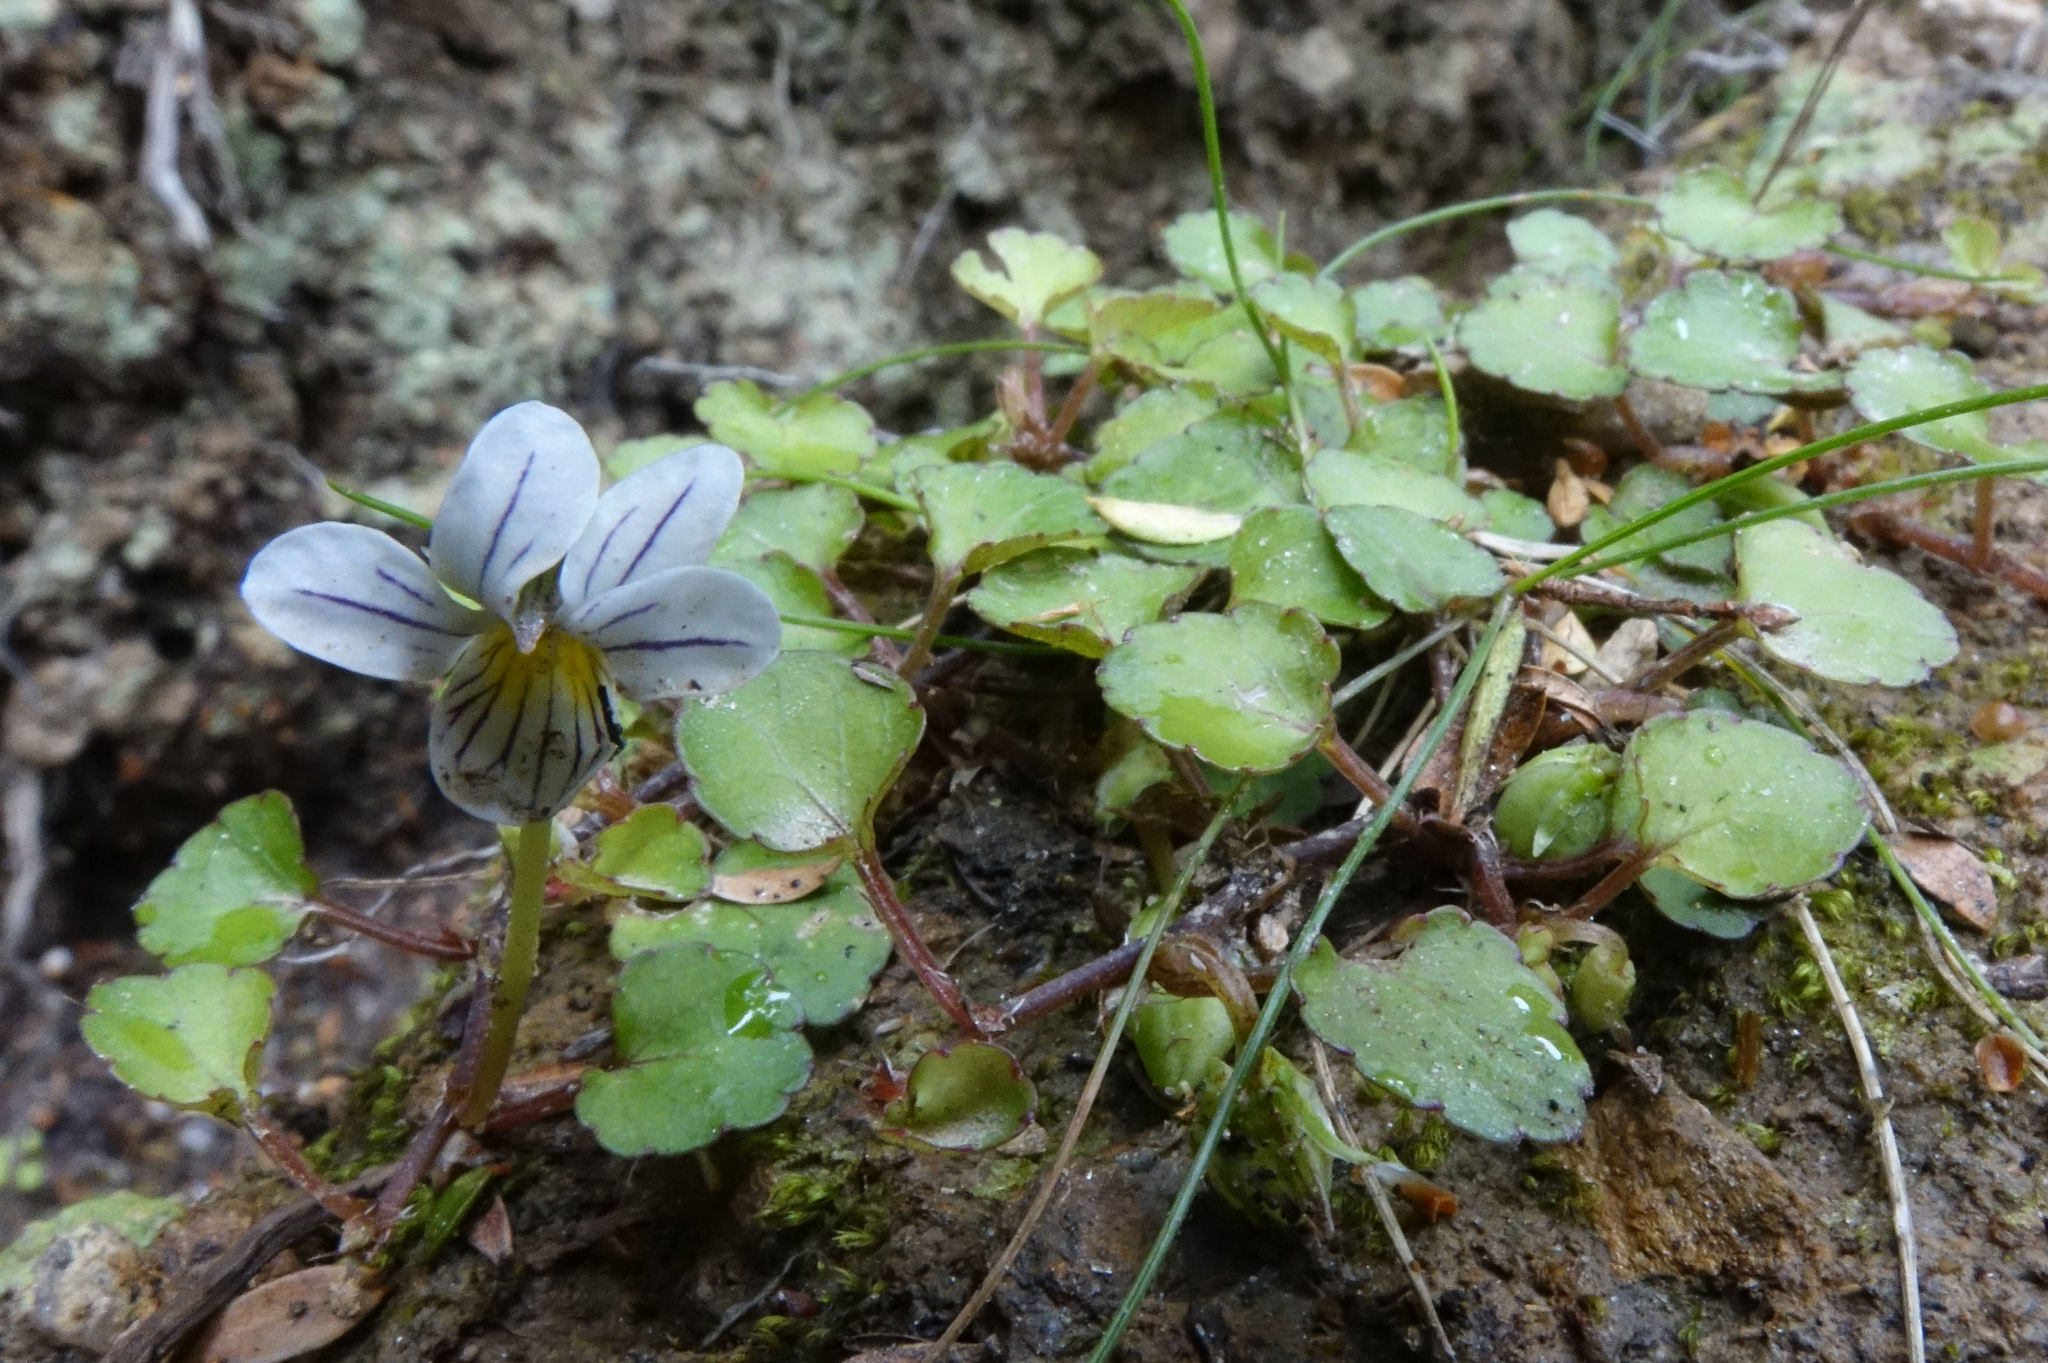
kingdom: Plantae
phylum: Tracheophyta
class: Magnoliopsida
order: Malpighiales
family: Violaceae
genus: Viola
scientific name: Viola filicaulis
